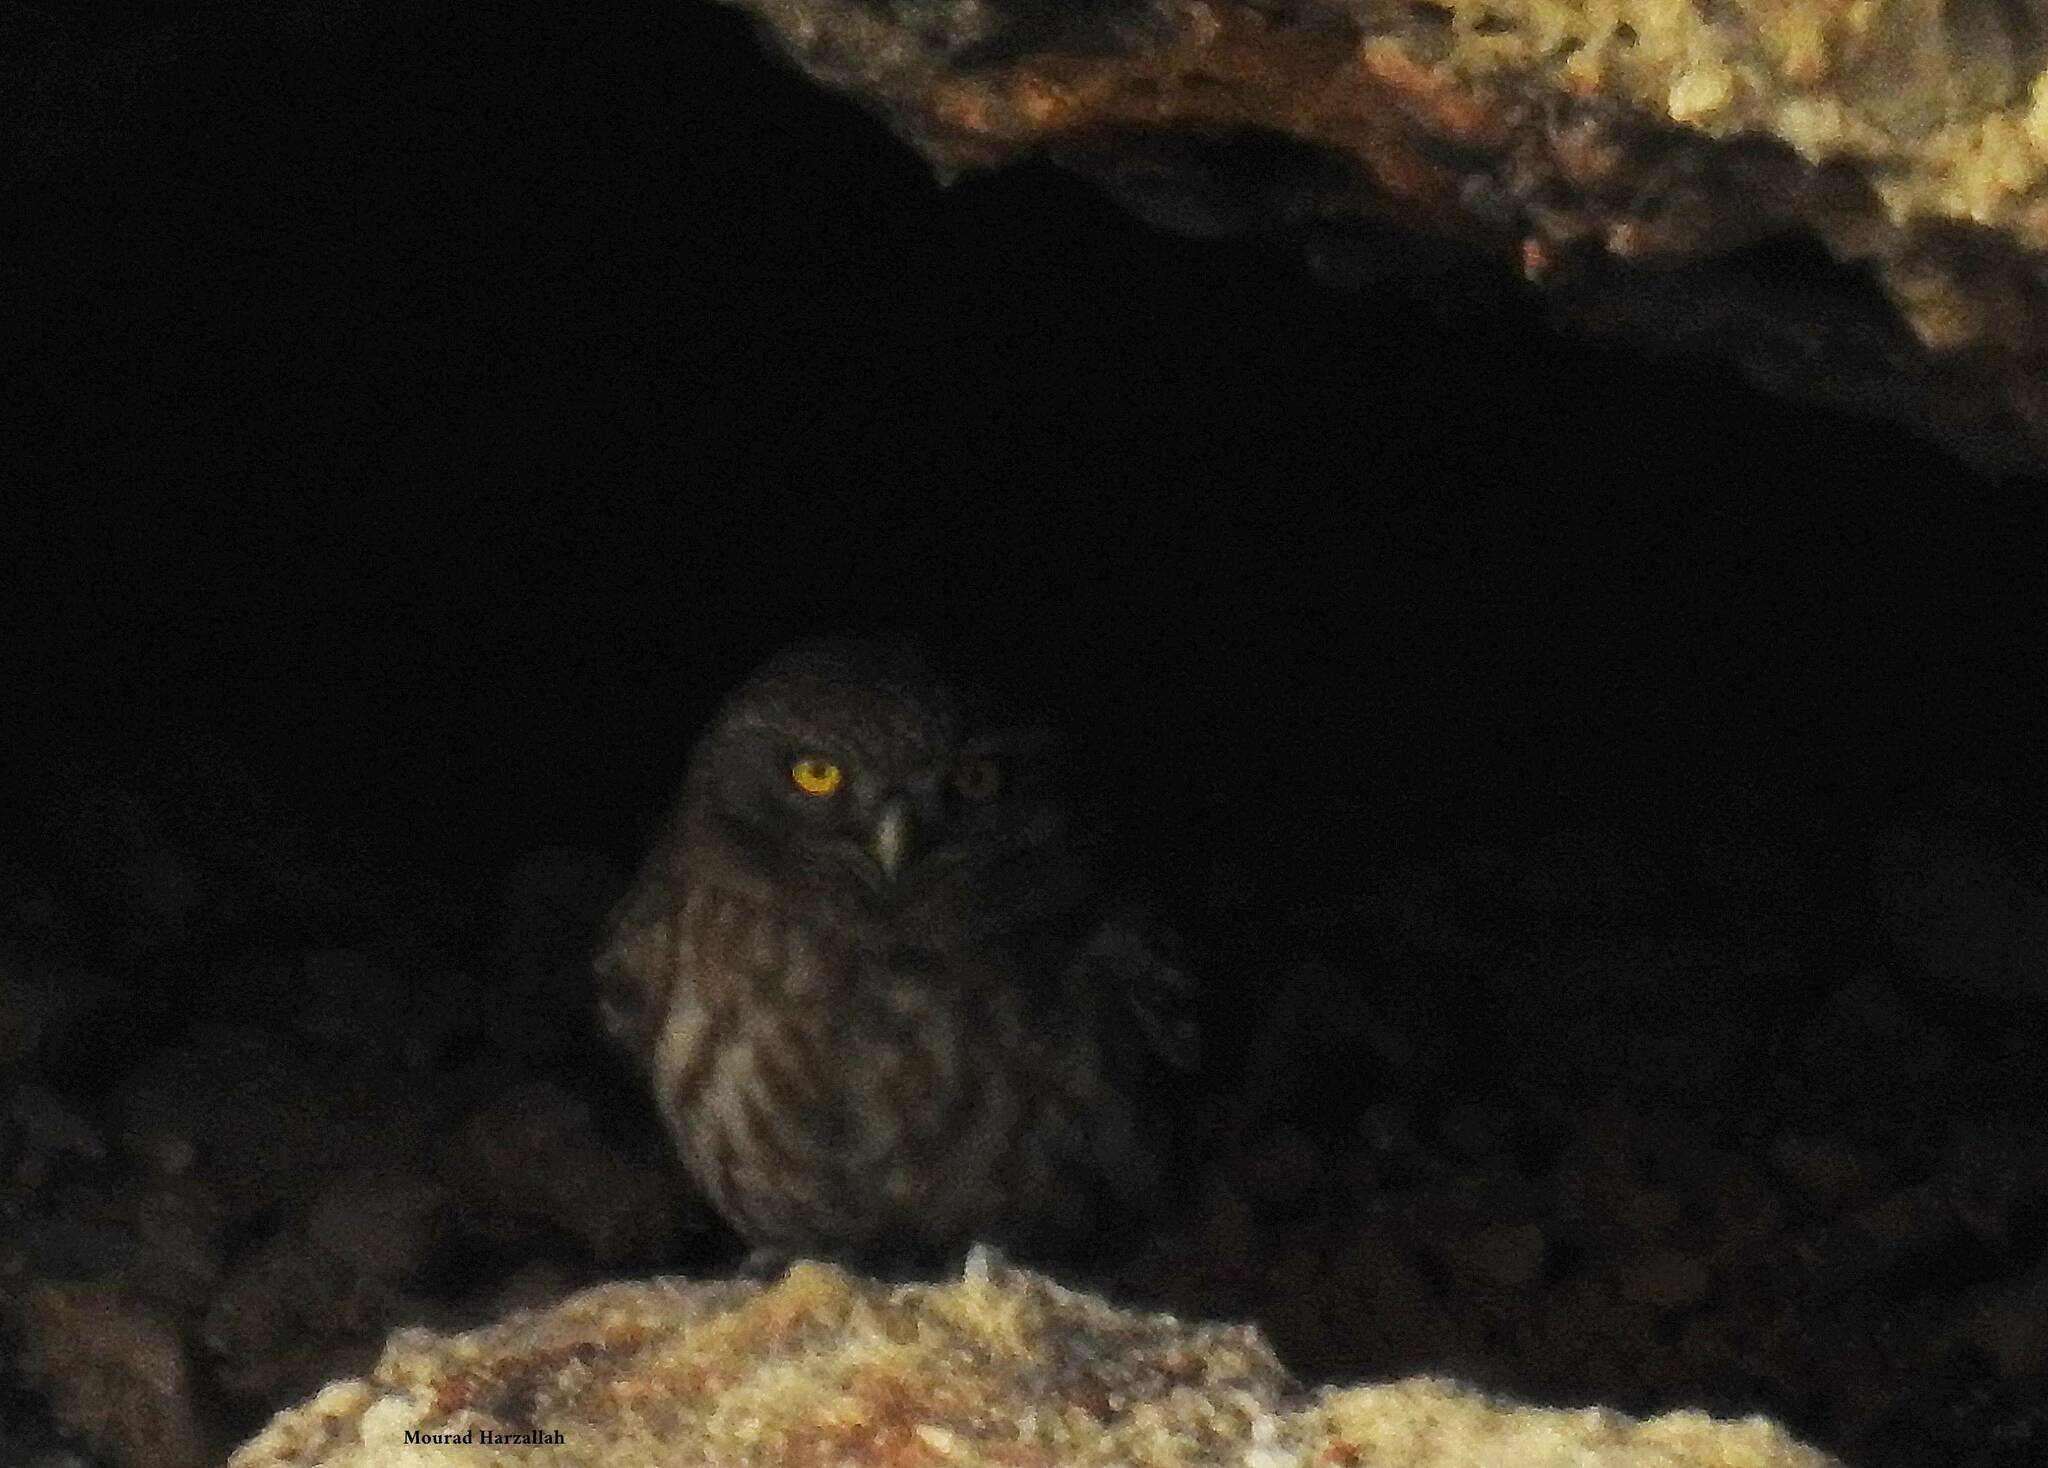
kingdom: Animalia
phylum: Chordata
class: Aves
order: Strigiformes
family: Strigidae
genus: Athene
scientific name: Athene noctua
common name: Little owl
